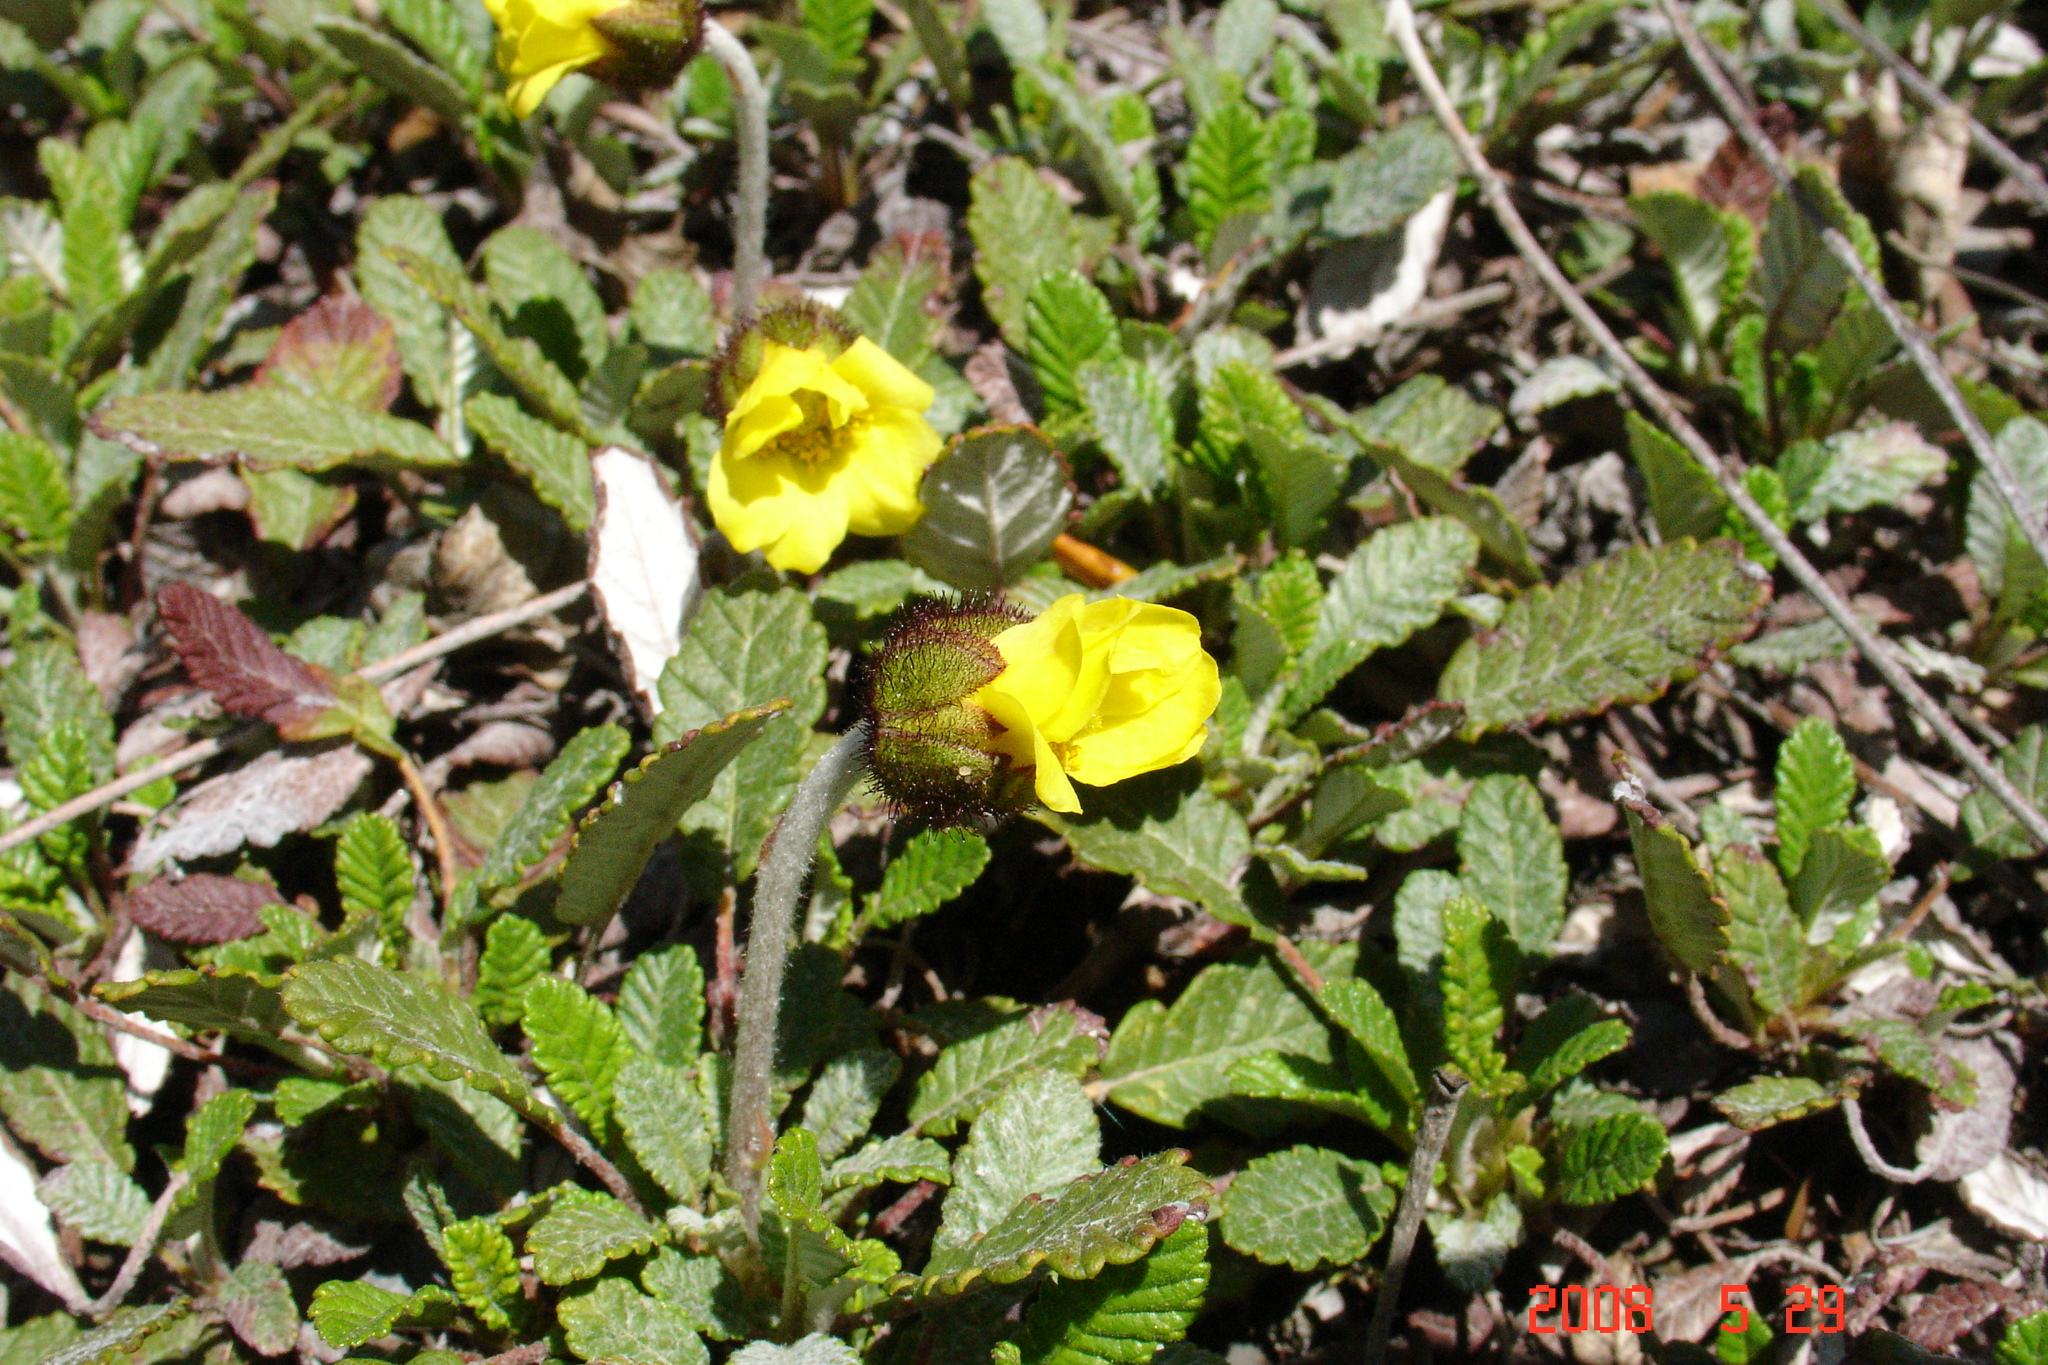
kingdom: Plantae
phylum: Tracheophyta
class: Magnoliopsida
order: Rosales
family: Rosaceae
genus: Dryas
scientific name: Dryas drummondii
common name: Drummond's dryad
